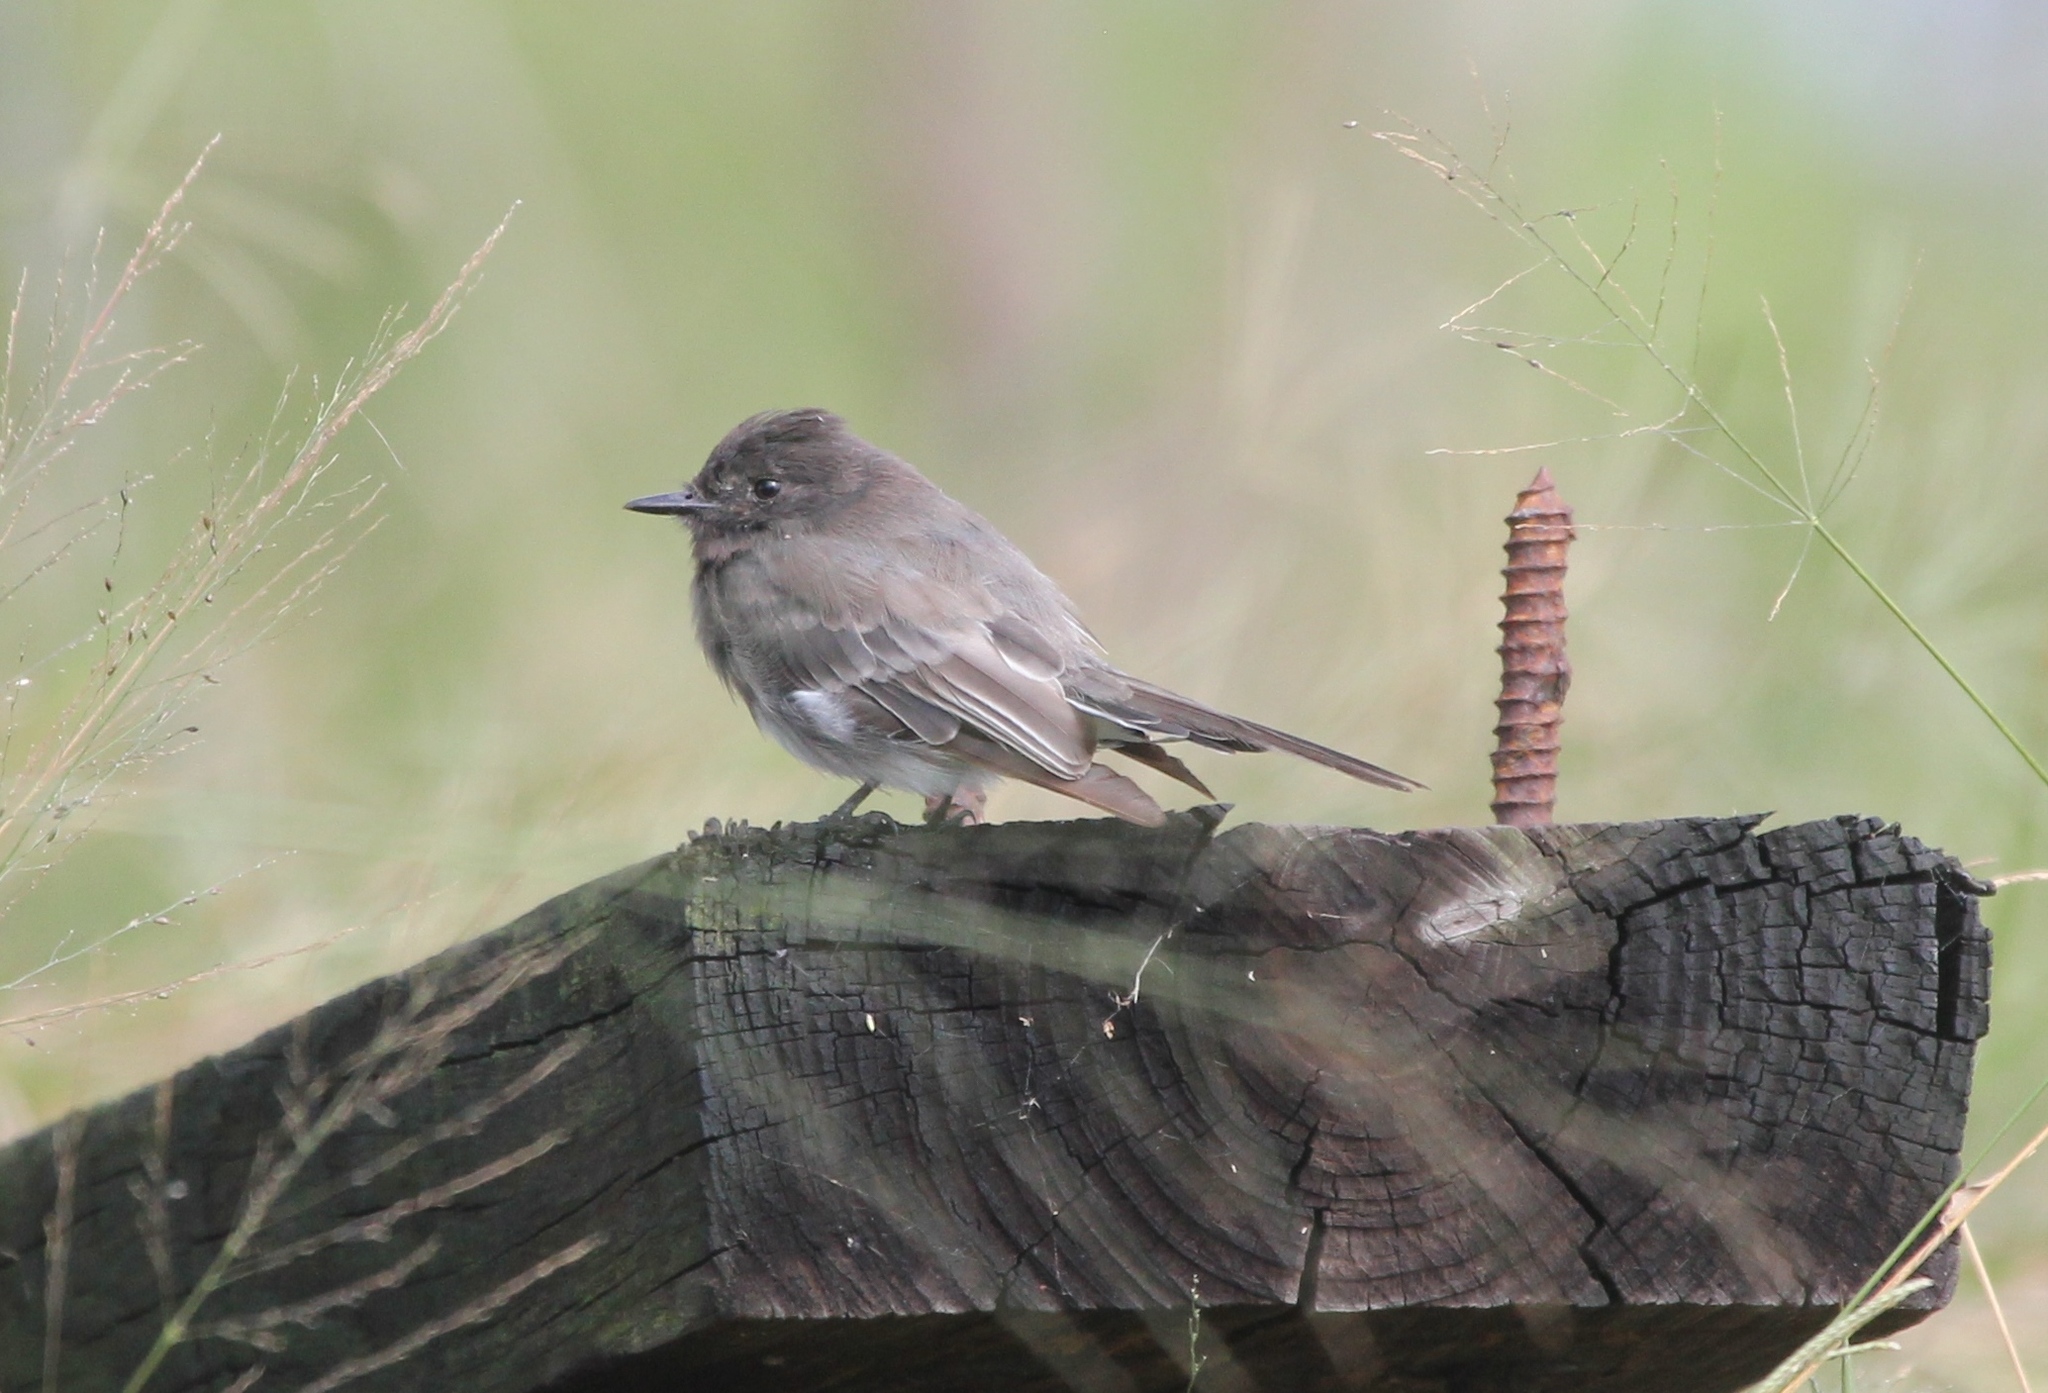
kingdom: Animalia
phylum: Chordata
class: Aves
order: Passeriformes
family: Tyrannidae
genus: Sayornis
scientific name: Sayornis nigricans
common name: Black phoebe
